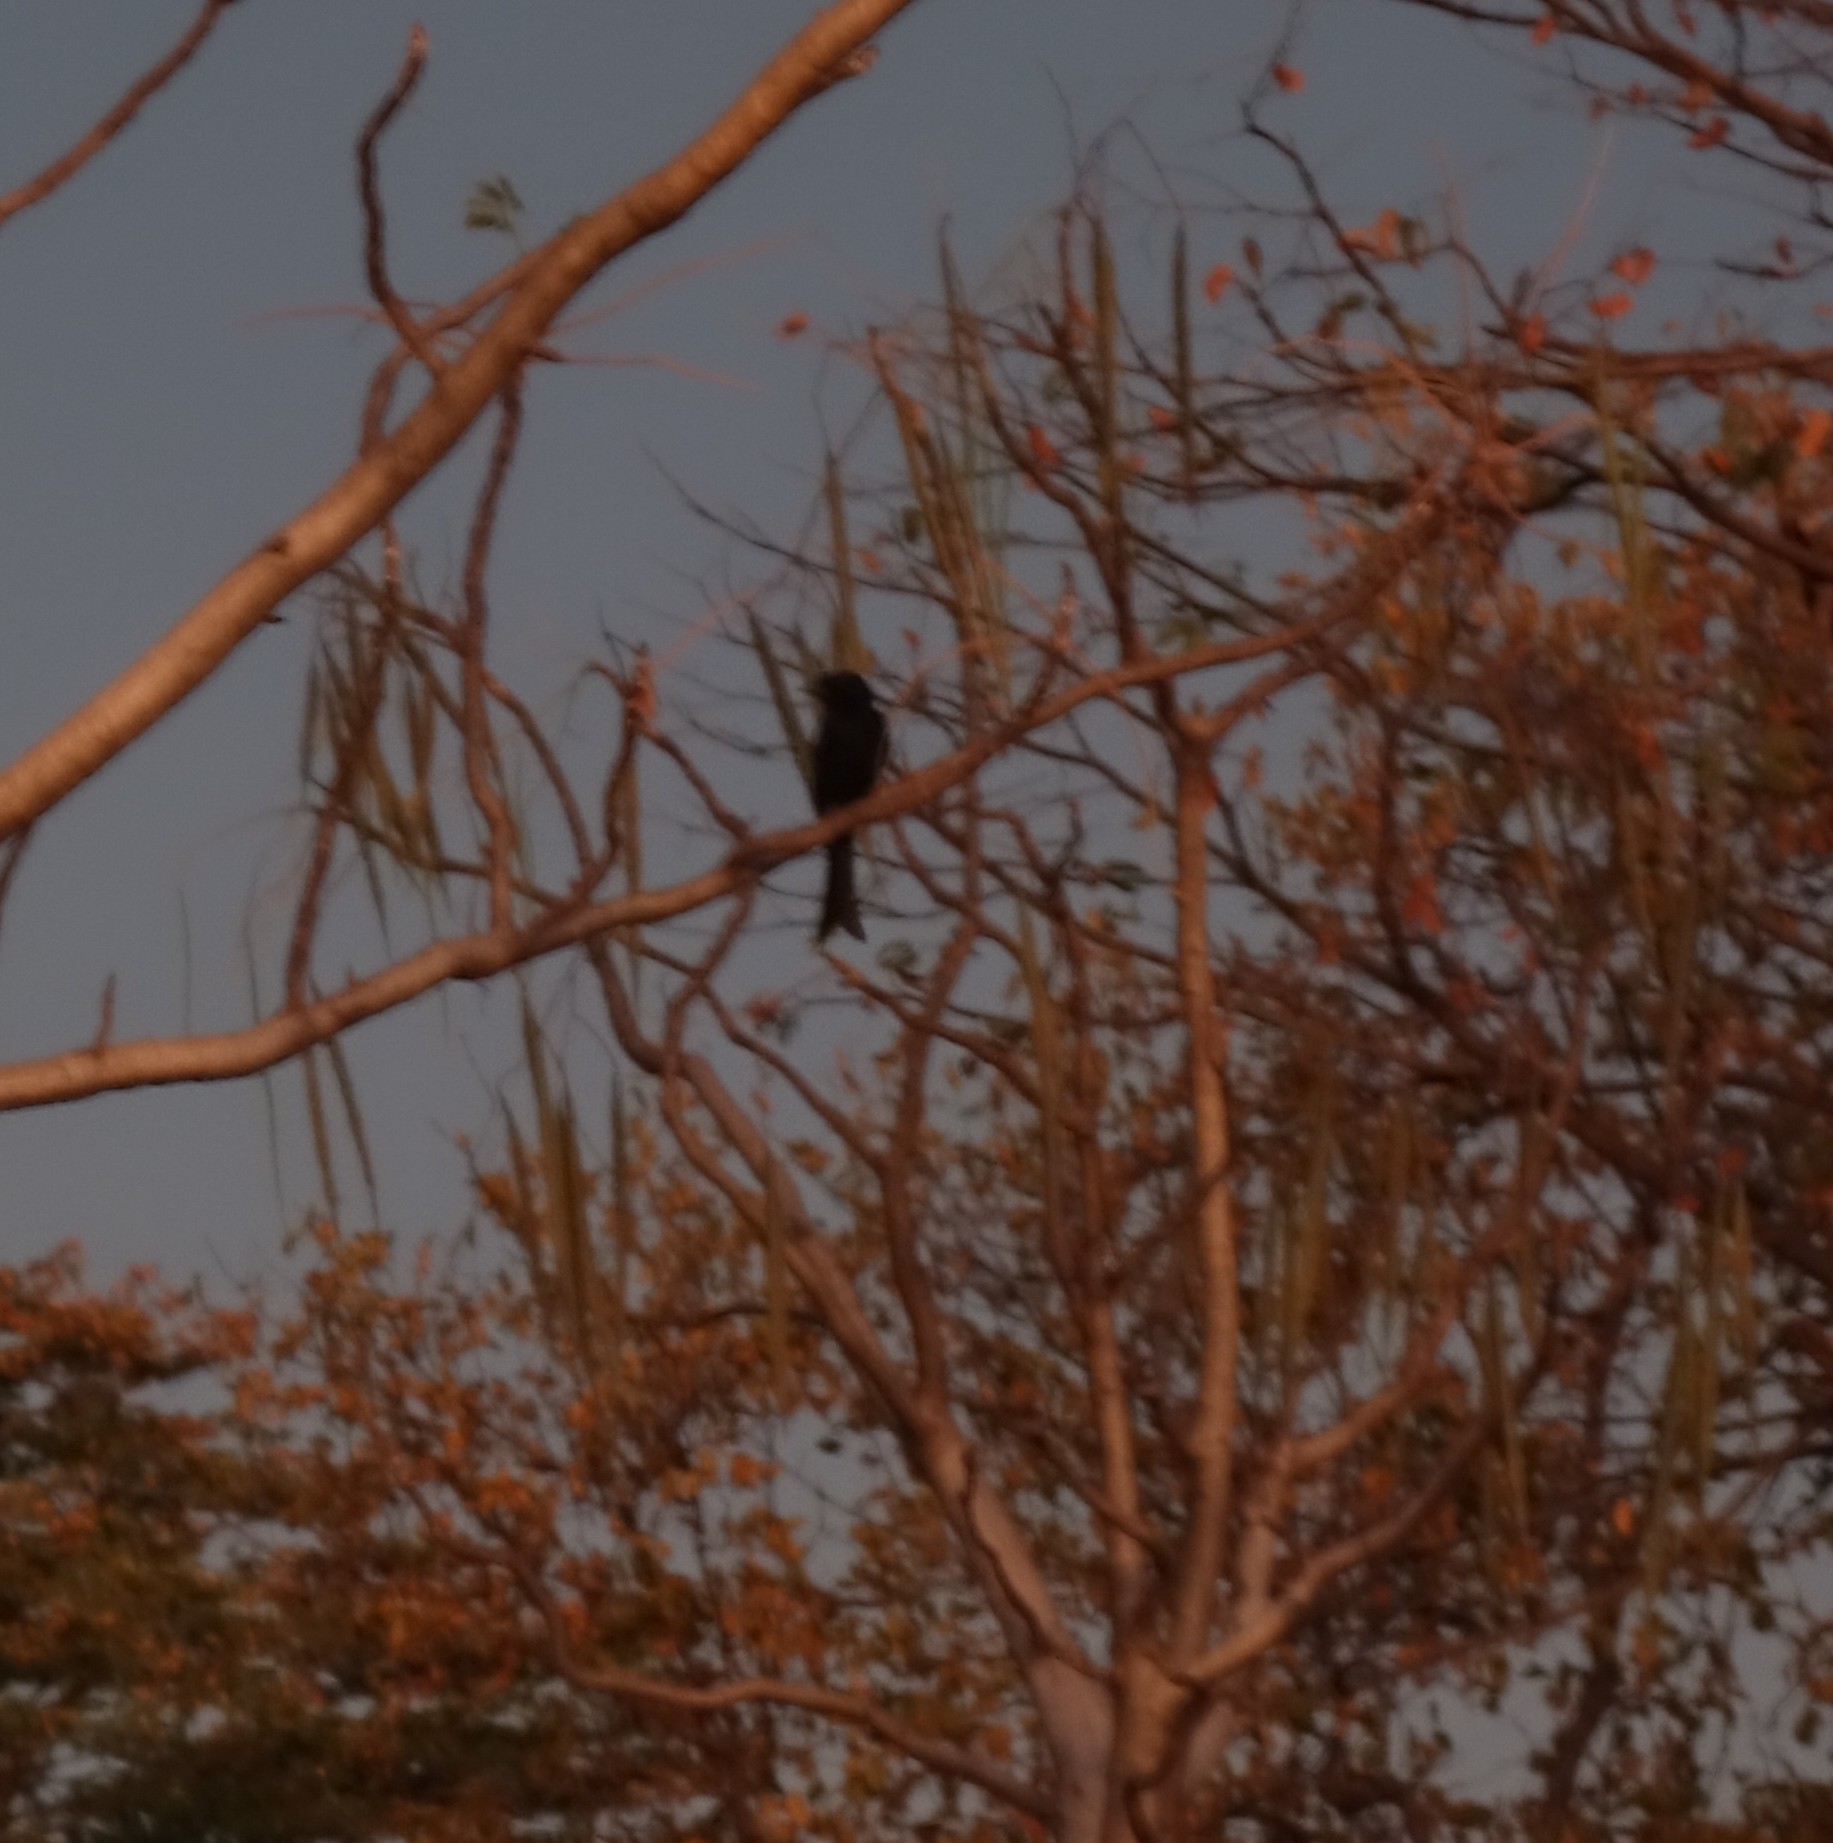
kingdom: Animalia
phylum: Chordata
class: Aves
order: Passeriformes
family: Dicruridae
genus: Dicrurus
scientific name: Dicrurus adsimilis
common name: Fork-tailed drongo
